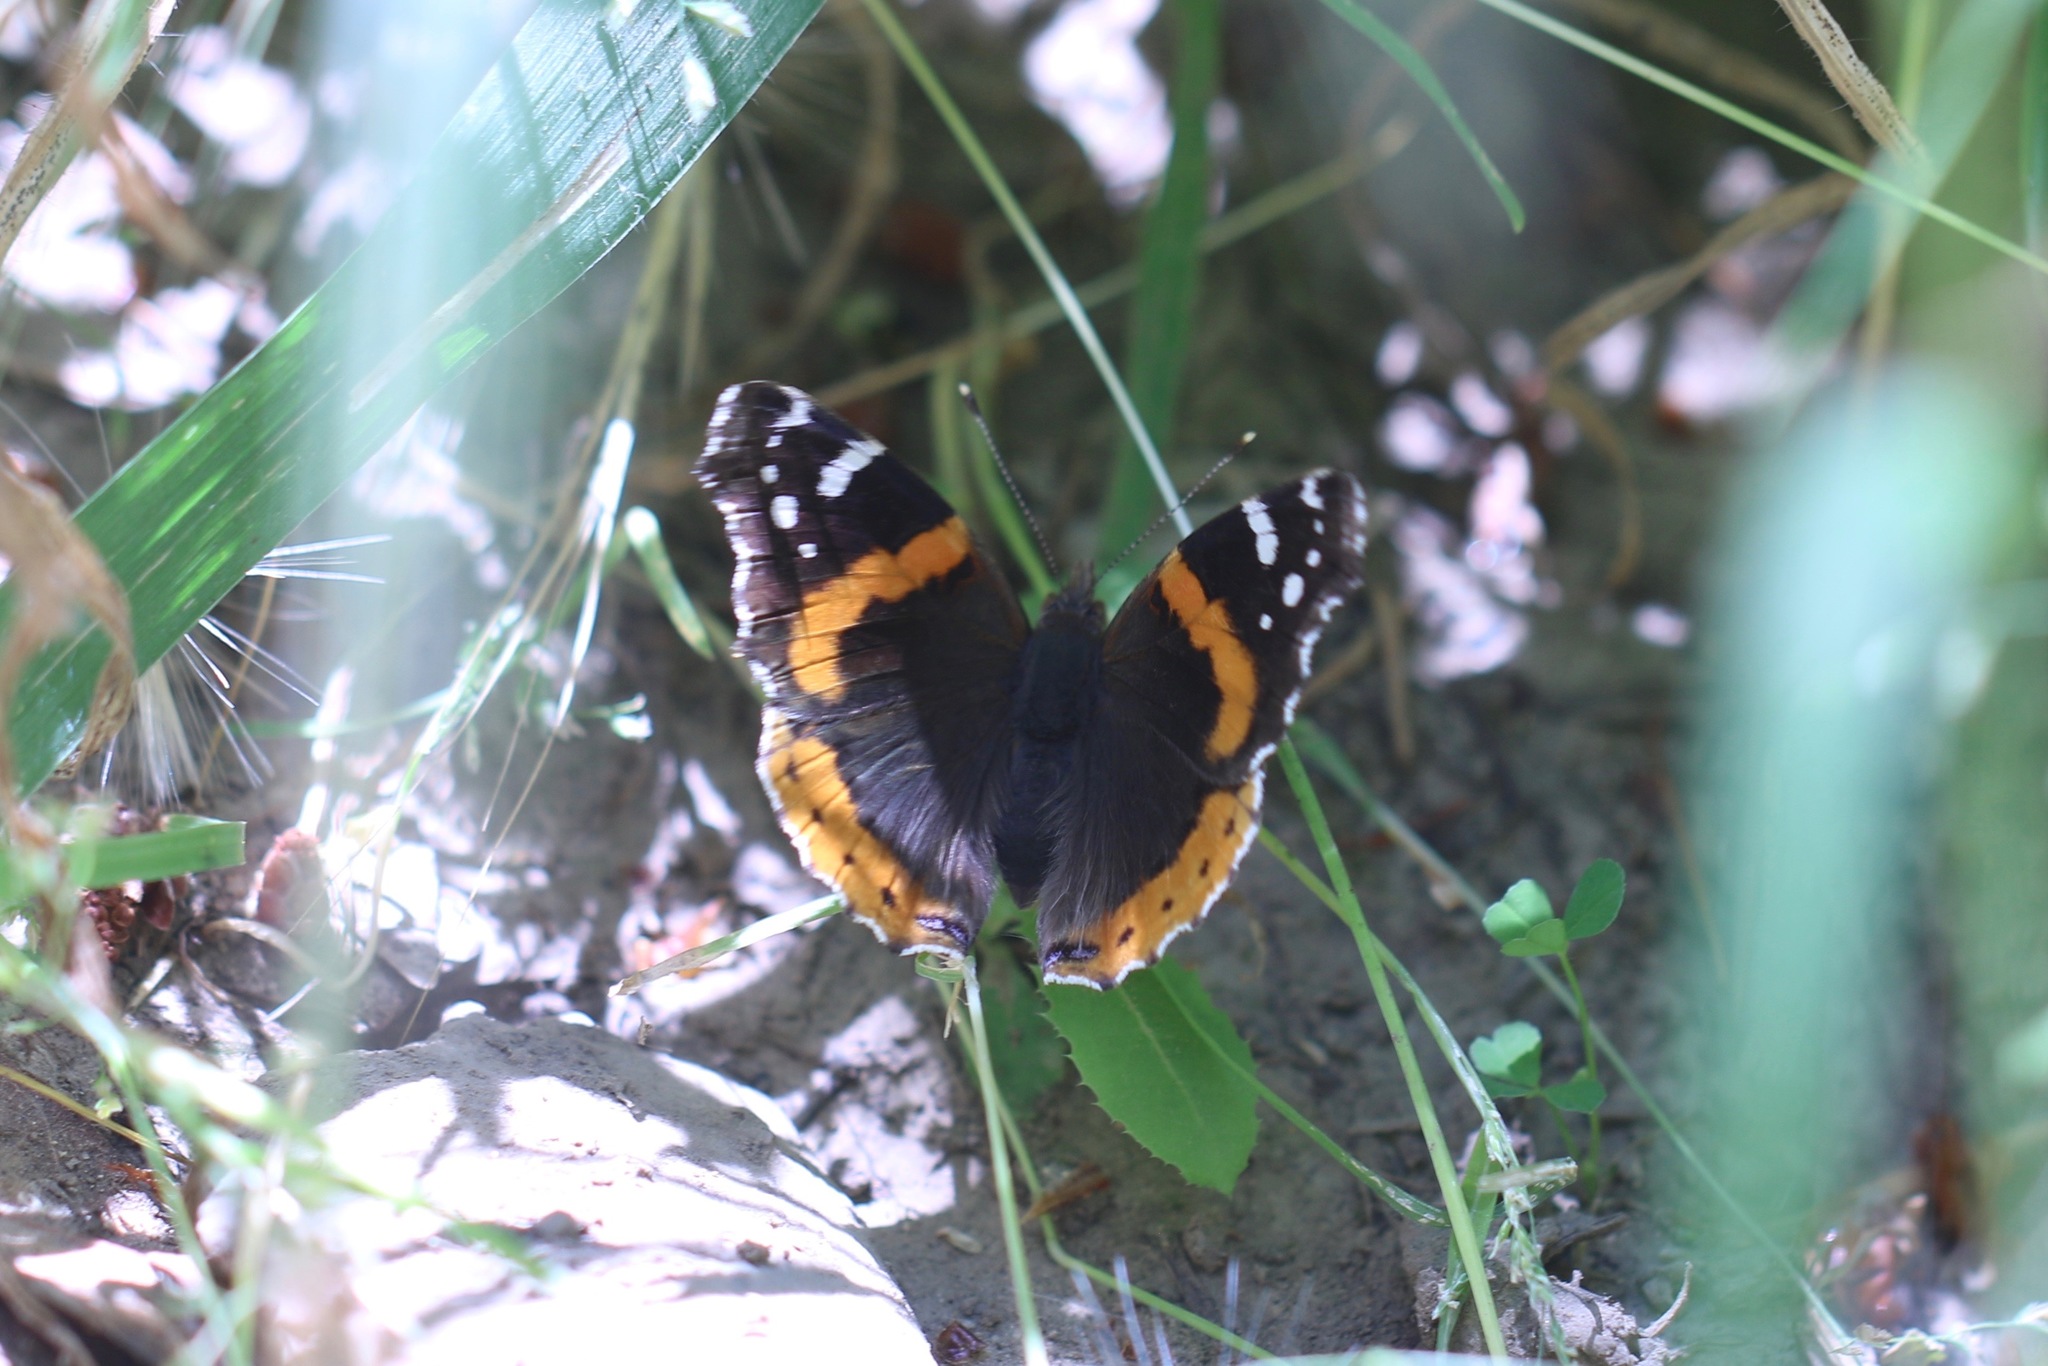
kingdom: Animalia
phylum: Arthropoda
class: Insecta
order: Lepidoptera
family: Nymphalidae
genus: Vanessa
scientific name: Vanessa atalanta
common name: Red admiral
